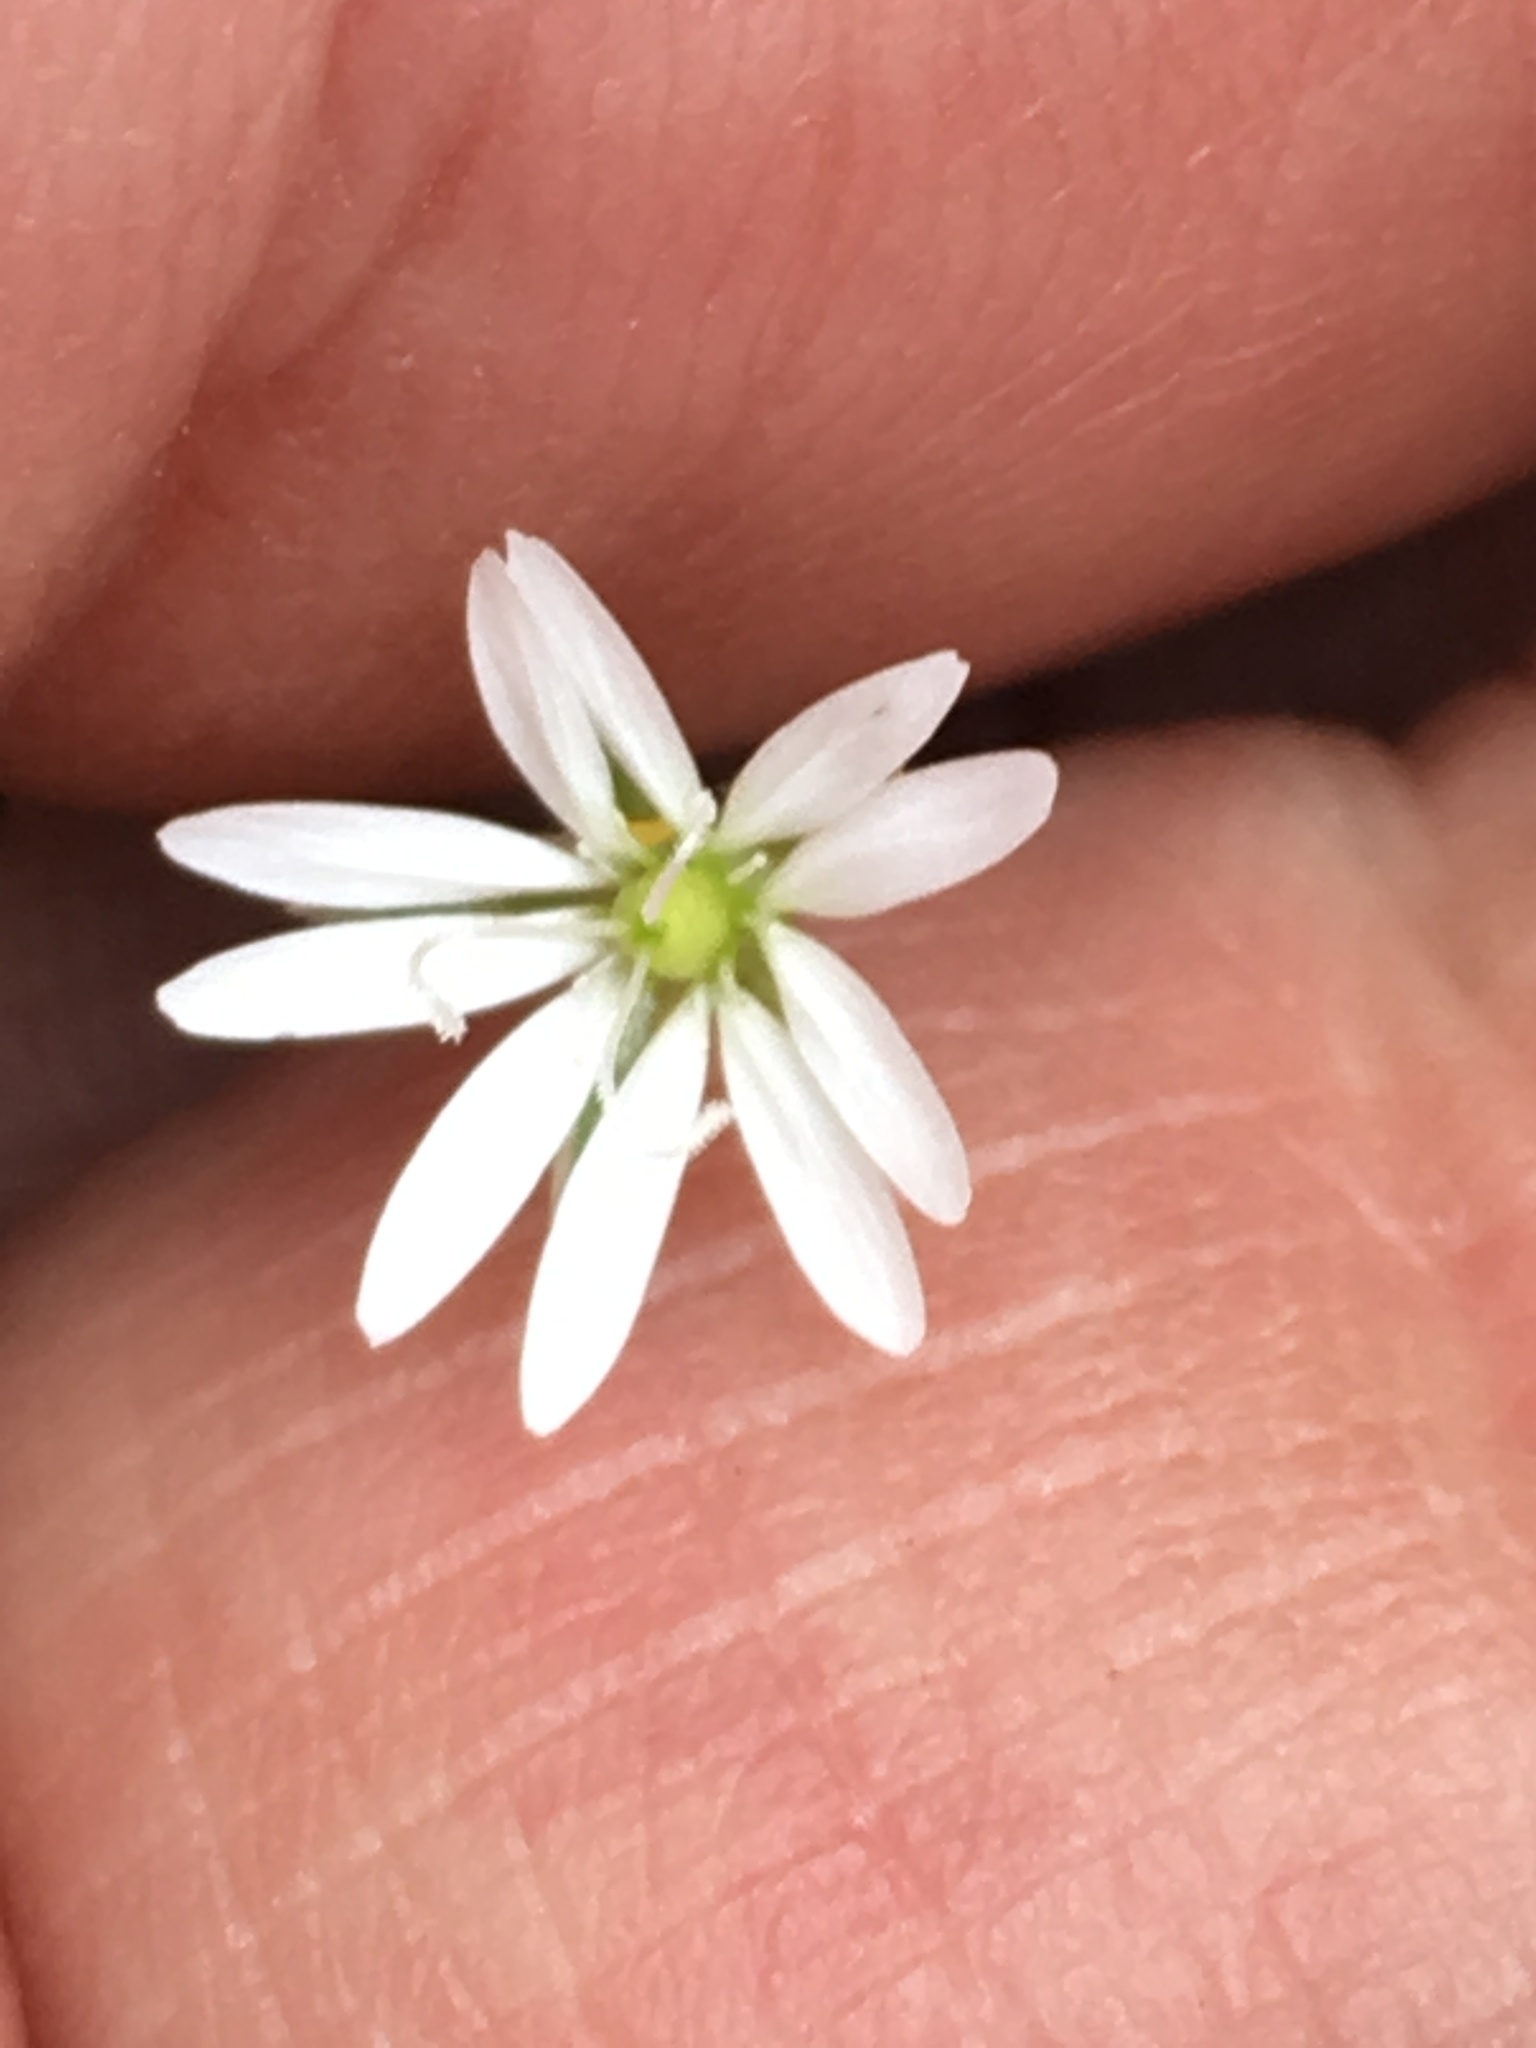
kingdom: Plantae
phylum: Tracheophyta
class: Magnoliopsida
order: Caryophyllales
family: Caryophyllaceae
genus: Stellaria
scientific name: Stellaria graminea
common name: Grass-like starwort
